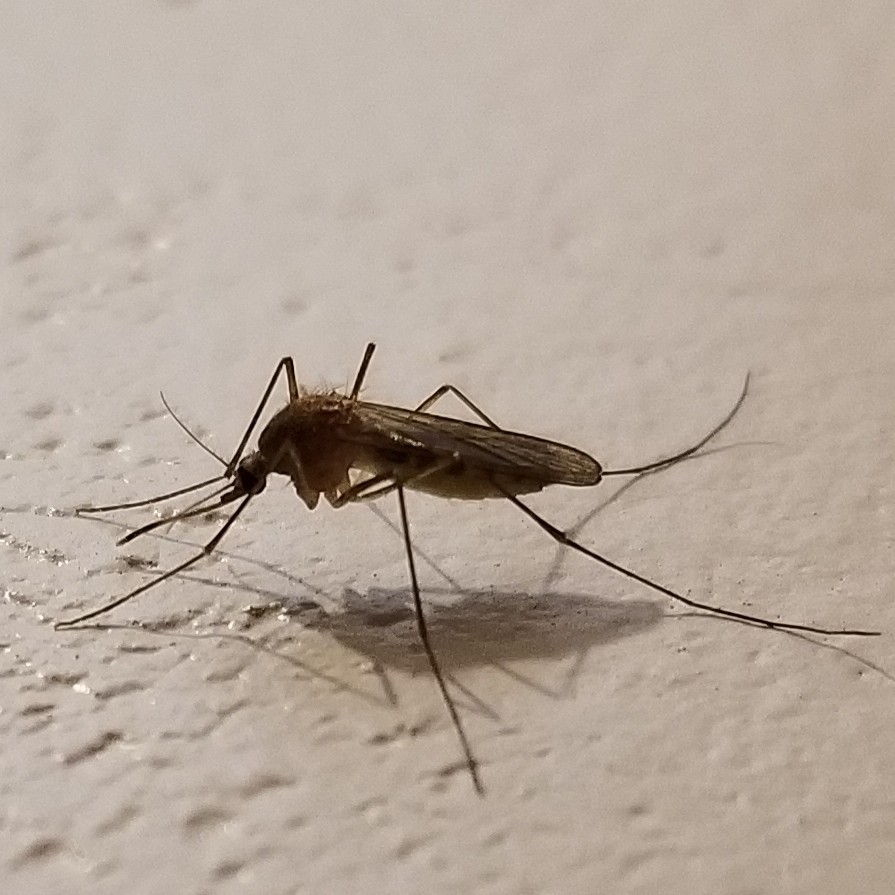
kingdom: Animalia
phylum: Arthropoda
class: Insecta
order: Diptera
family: Culicidae
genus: Culex
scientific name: Culex pipiens
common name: Mosquito
